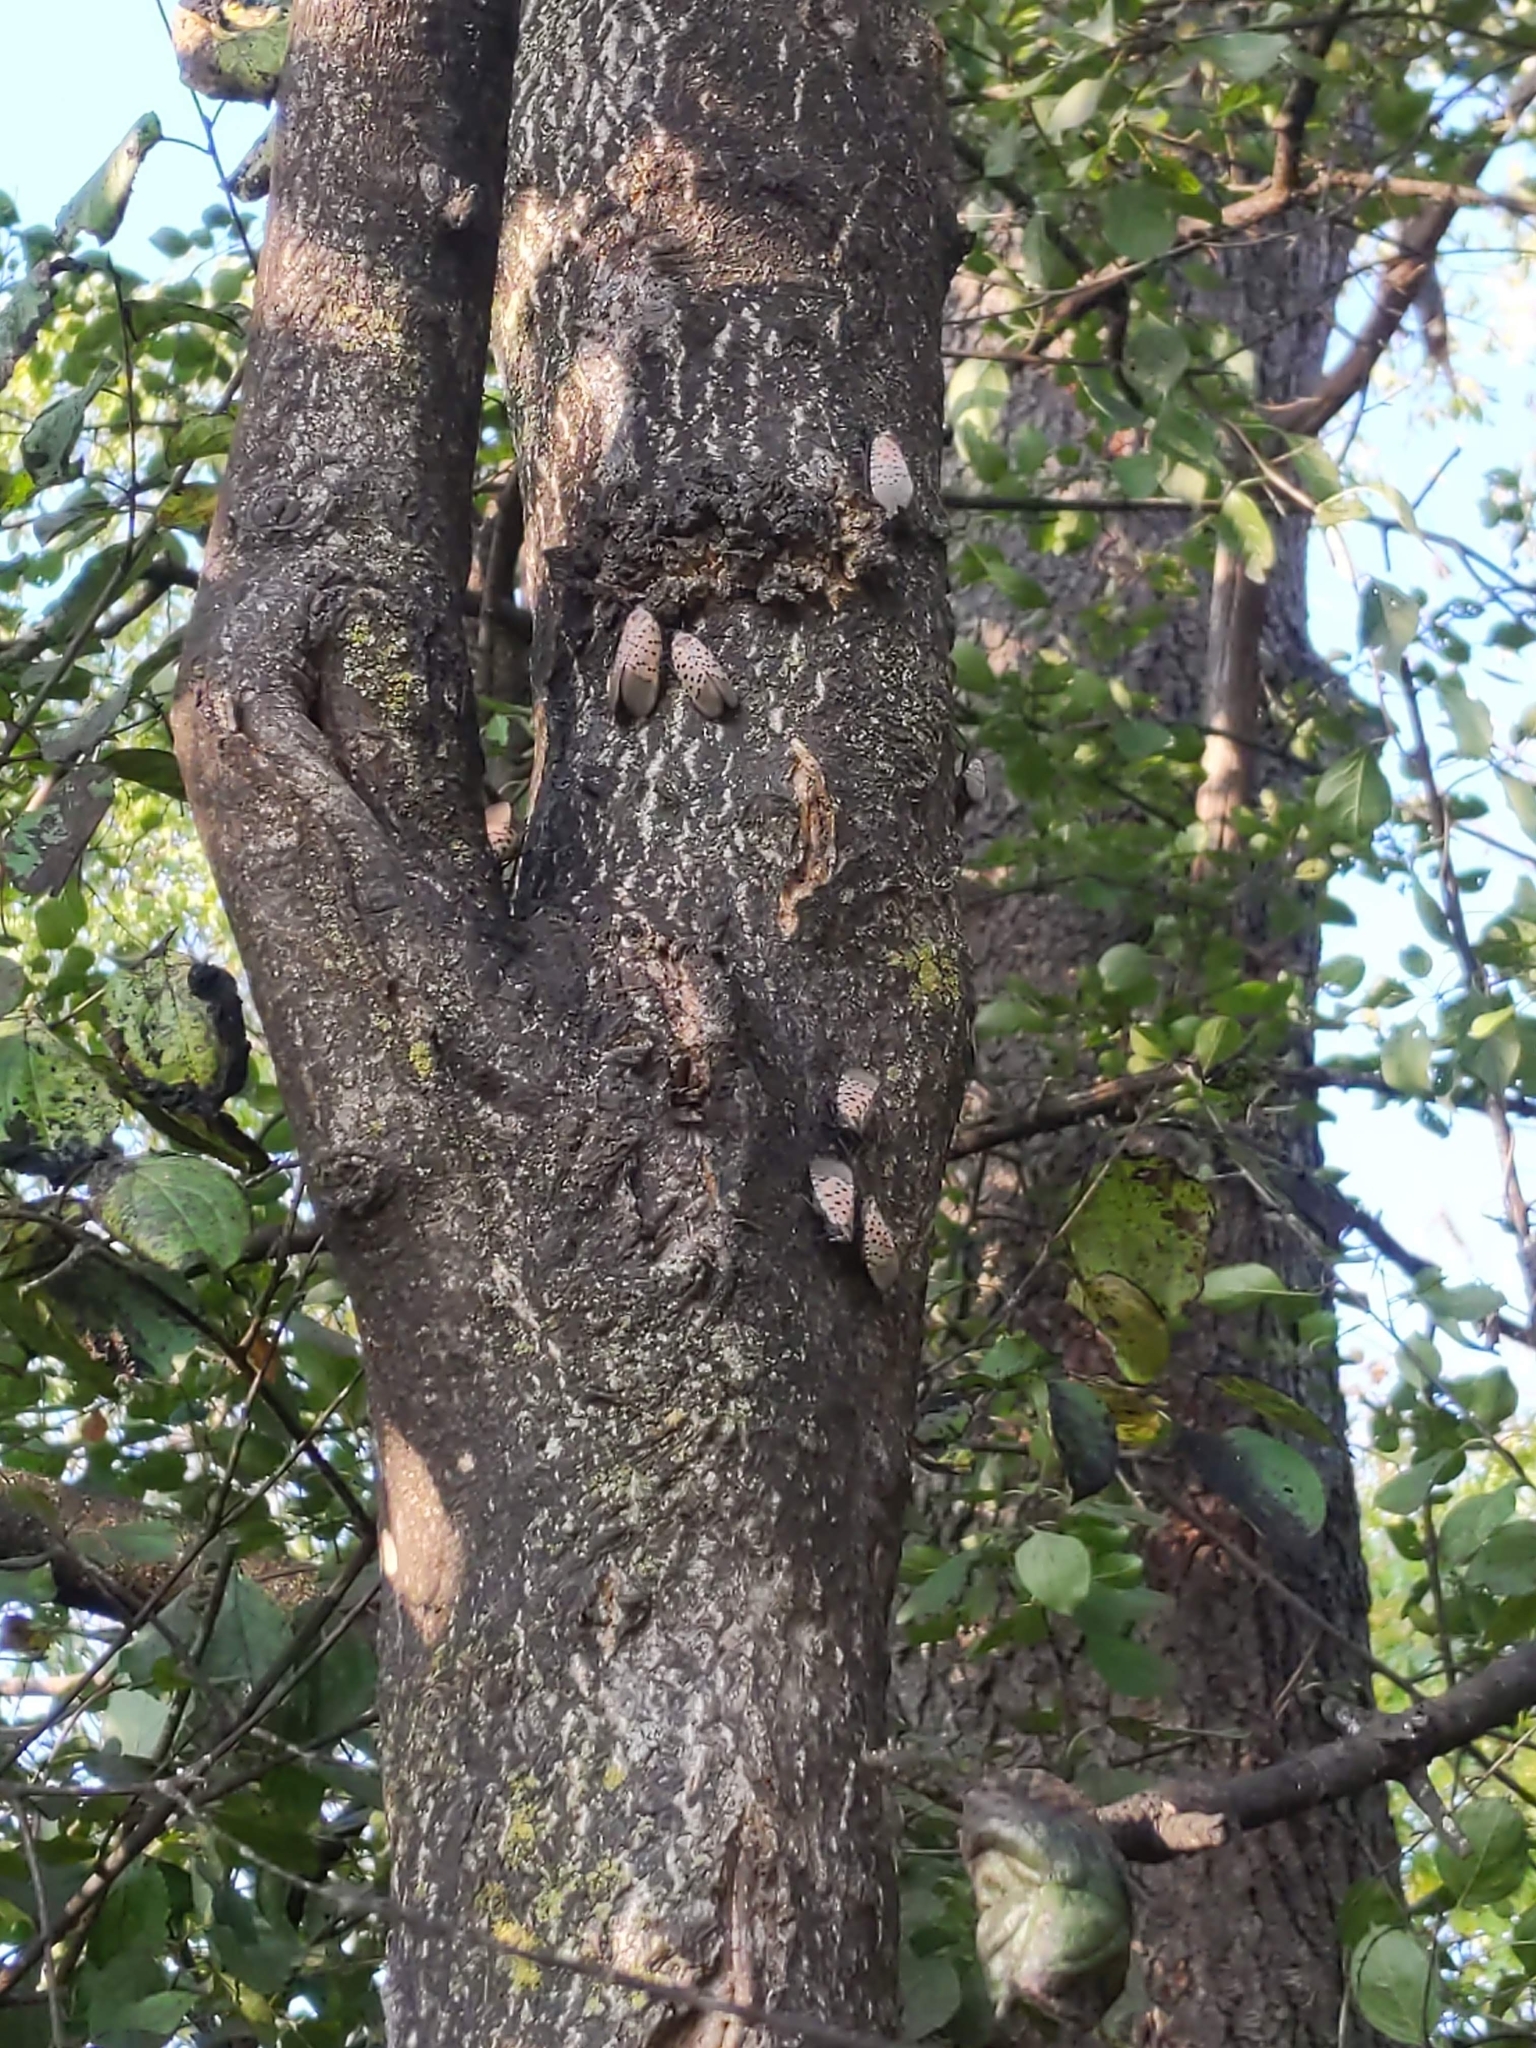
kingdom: Animalia
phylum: Arthropoda
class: Insecta
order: Hemiptera
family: Fulgoridae
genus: Lycorma
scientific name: Lycorma delicatula
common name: Spotted lanternfly
